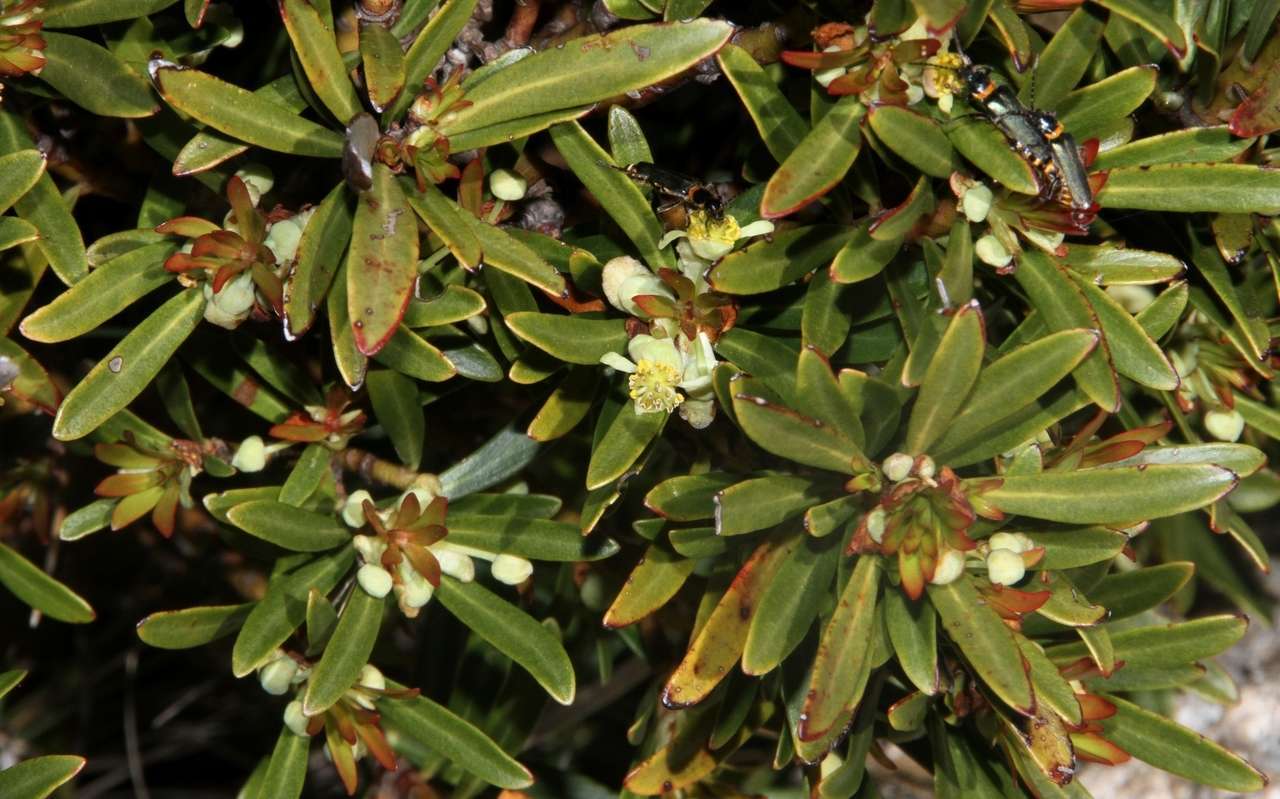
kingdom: Plantae
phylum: Tracheophyta
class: Magnoliopsida
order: Canellales
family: Winteraceae
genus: Drimys
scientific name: Drimys xerophila
